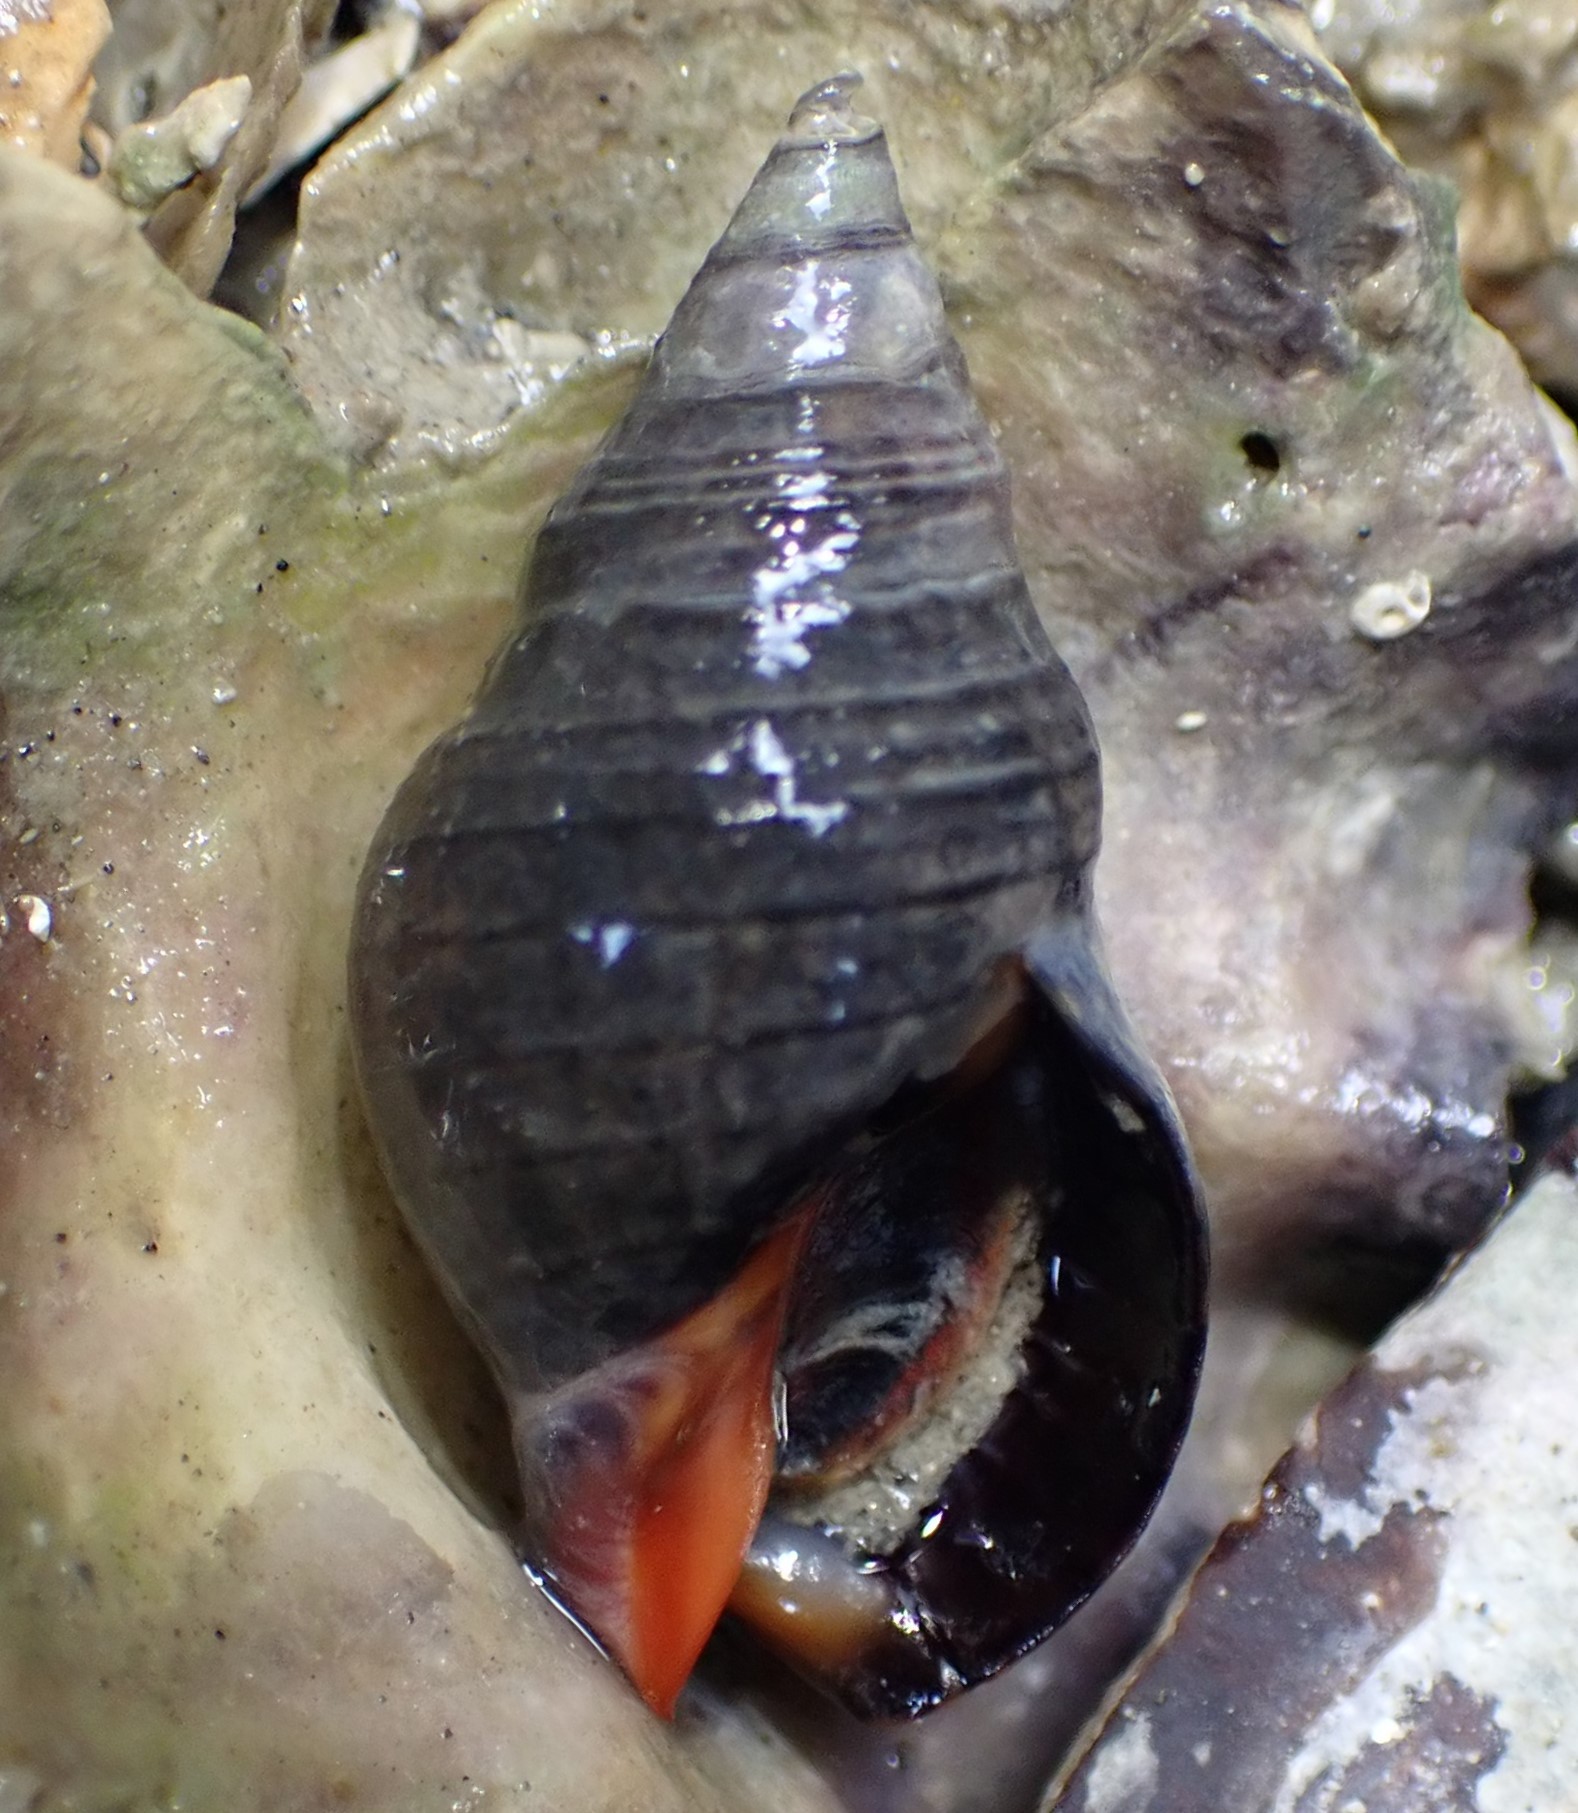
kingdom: Animalia
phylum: Mollusca
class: Gastropoda
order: Neogastropoda
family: Cominellidae
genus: Cominella
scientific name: Cominella virgata
